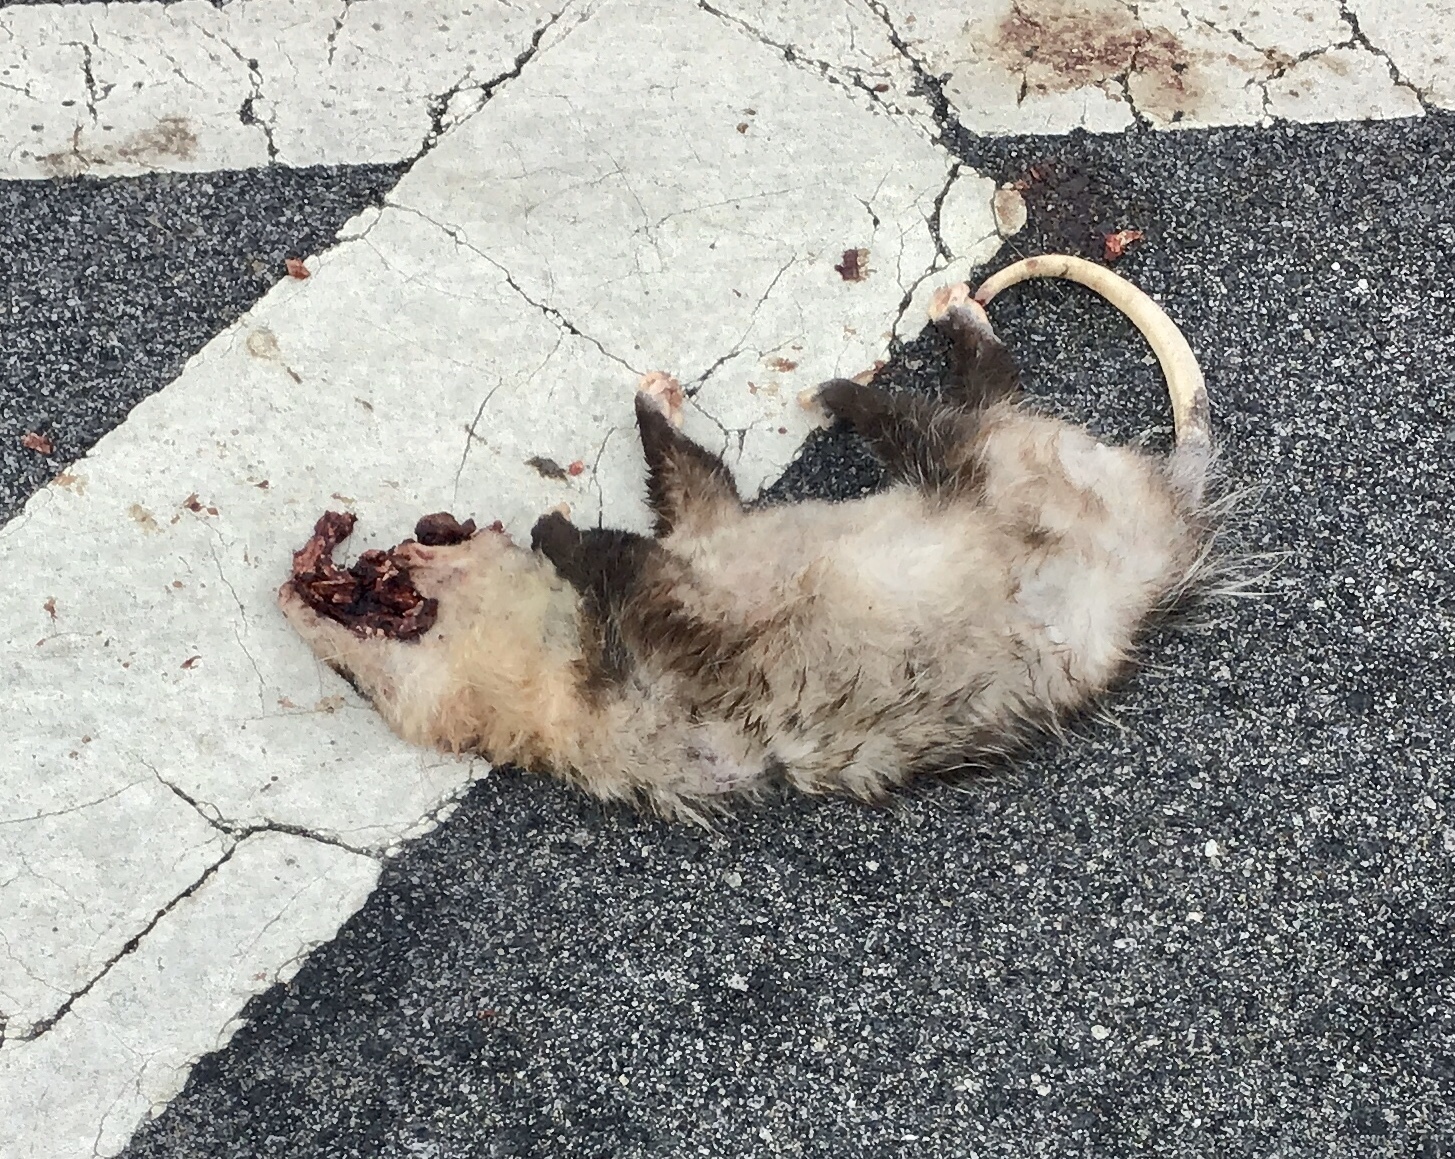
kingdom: Animalia
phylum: Chordata
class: Mammalia
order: Didelphimorphia
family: Didelphidae
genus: Didelphis
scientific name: Didelphis virginiana
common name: Virginia opossum
